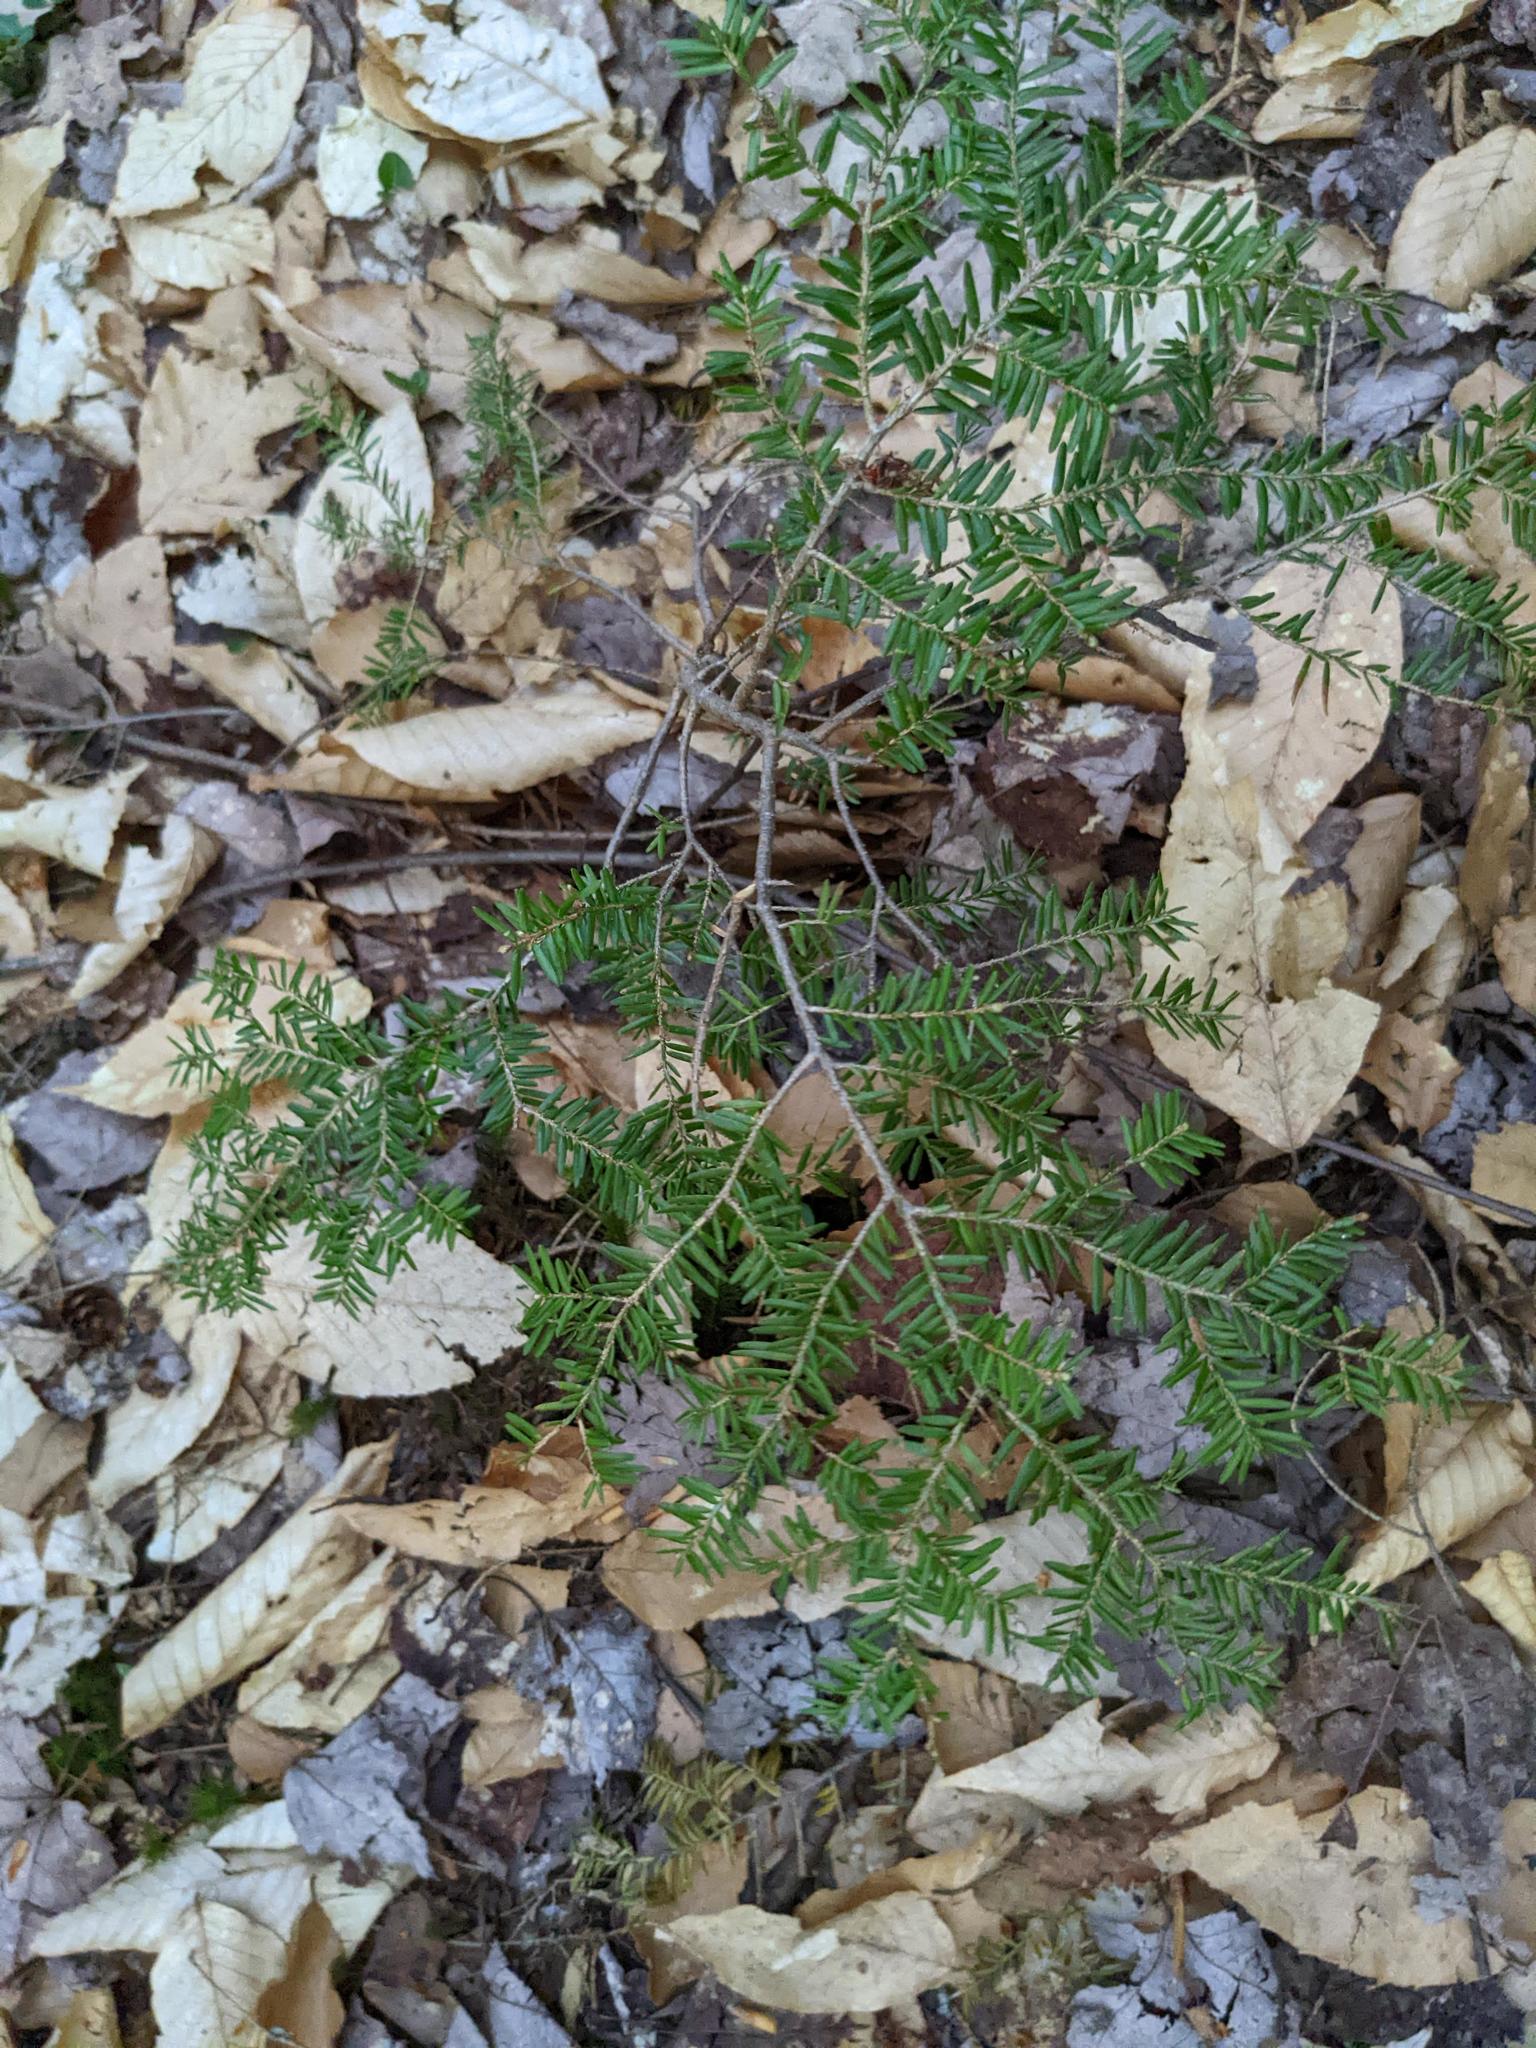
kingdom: Plantae
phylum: Tracheophyta
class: Pinopsida
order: Pinales
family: Pinaceae
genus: Tsuga
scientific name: Tsuga canadensis
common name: Eastern hemlock
